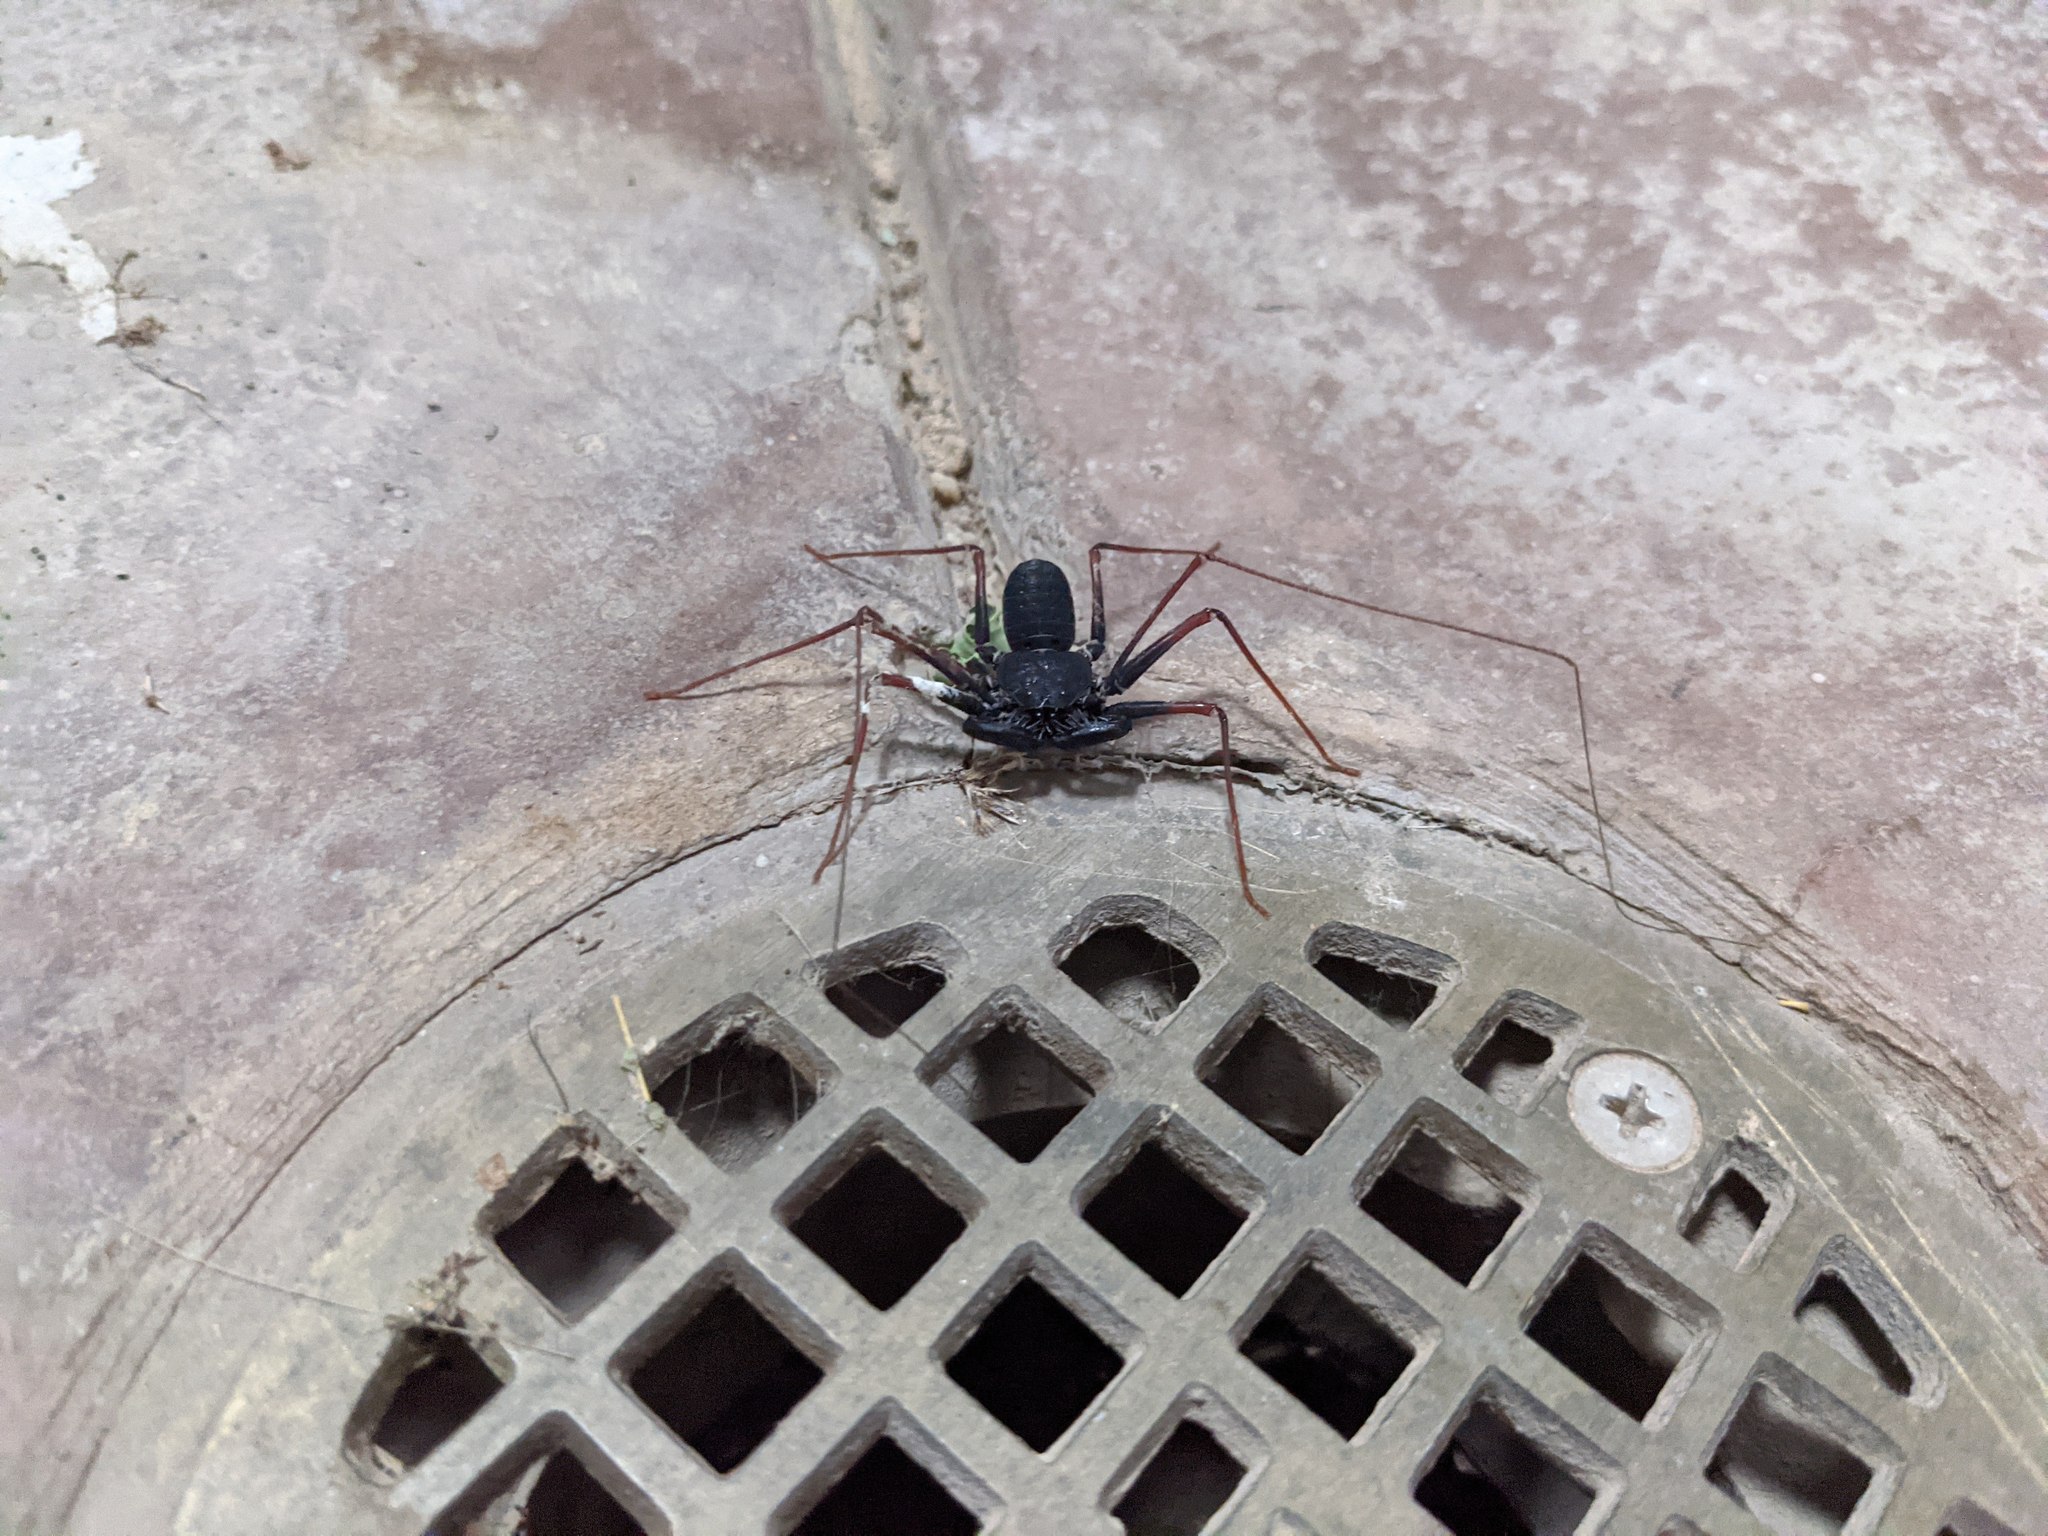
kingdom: Animalia
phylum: Arthropoda
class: Arachnida
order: Amblypygi
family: Phrynidae
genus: Paraphrynus
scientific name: Paraphrynus carolynae
